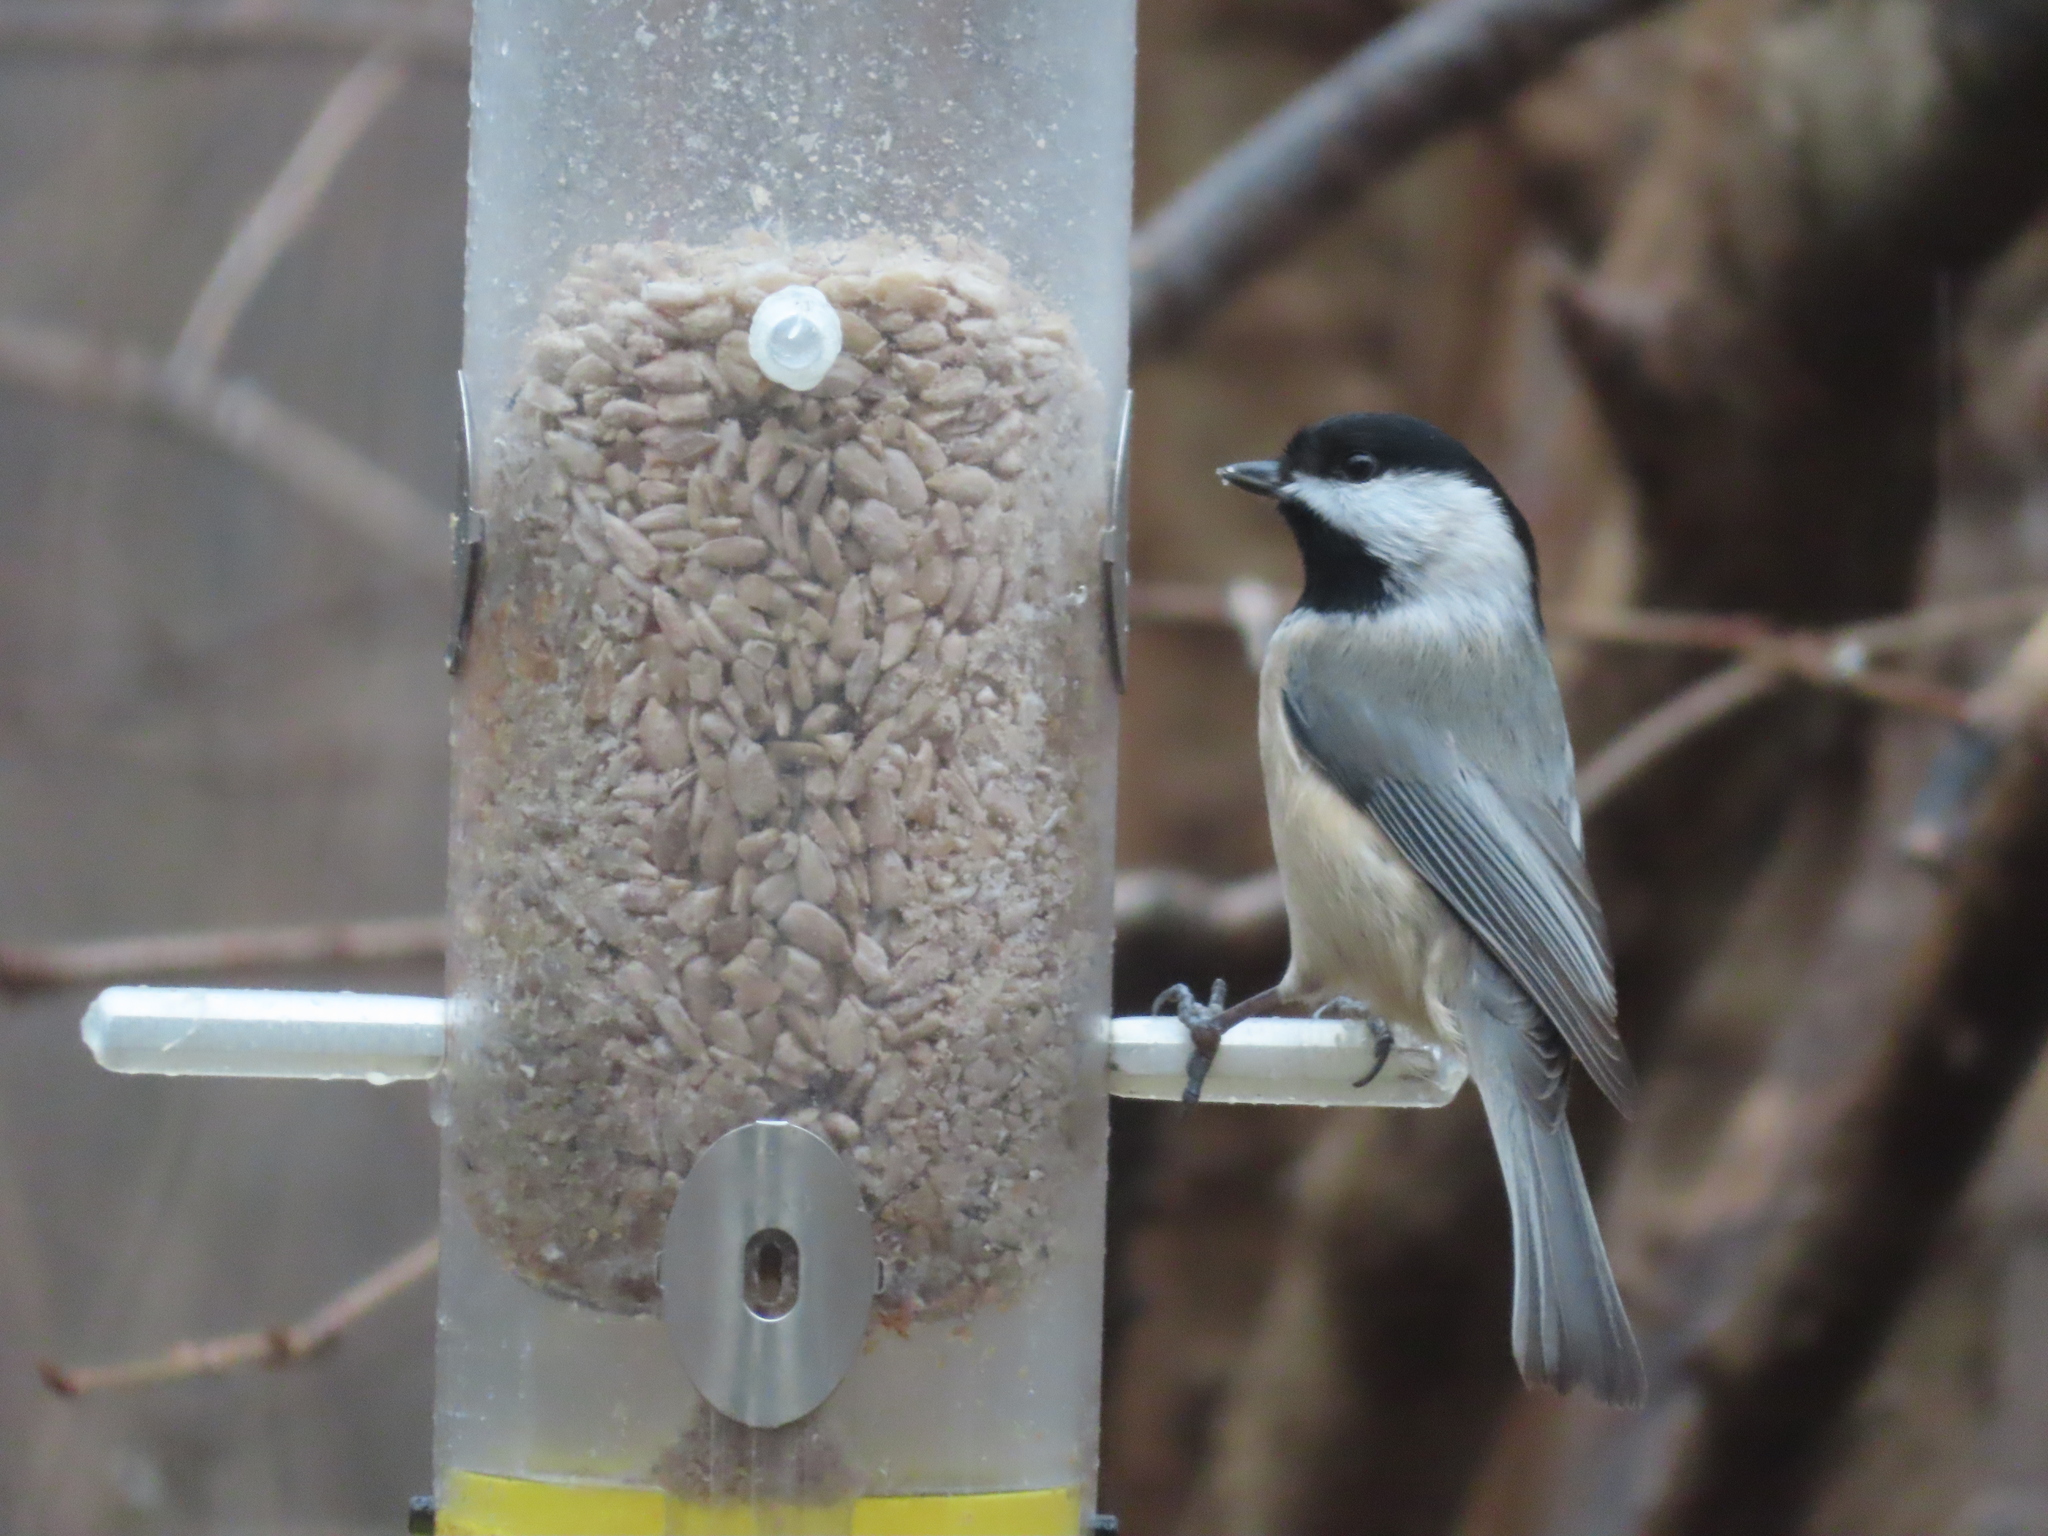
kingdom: Animalia
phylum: Chordata
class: Aves
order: Passeriformes
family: Paridae
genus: Poecile
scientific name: Poecile carolinensis
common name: Carolina chickadee
